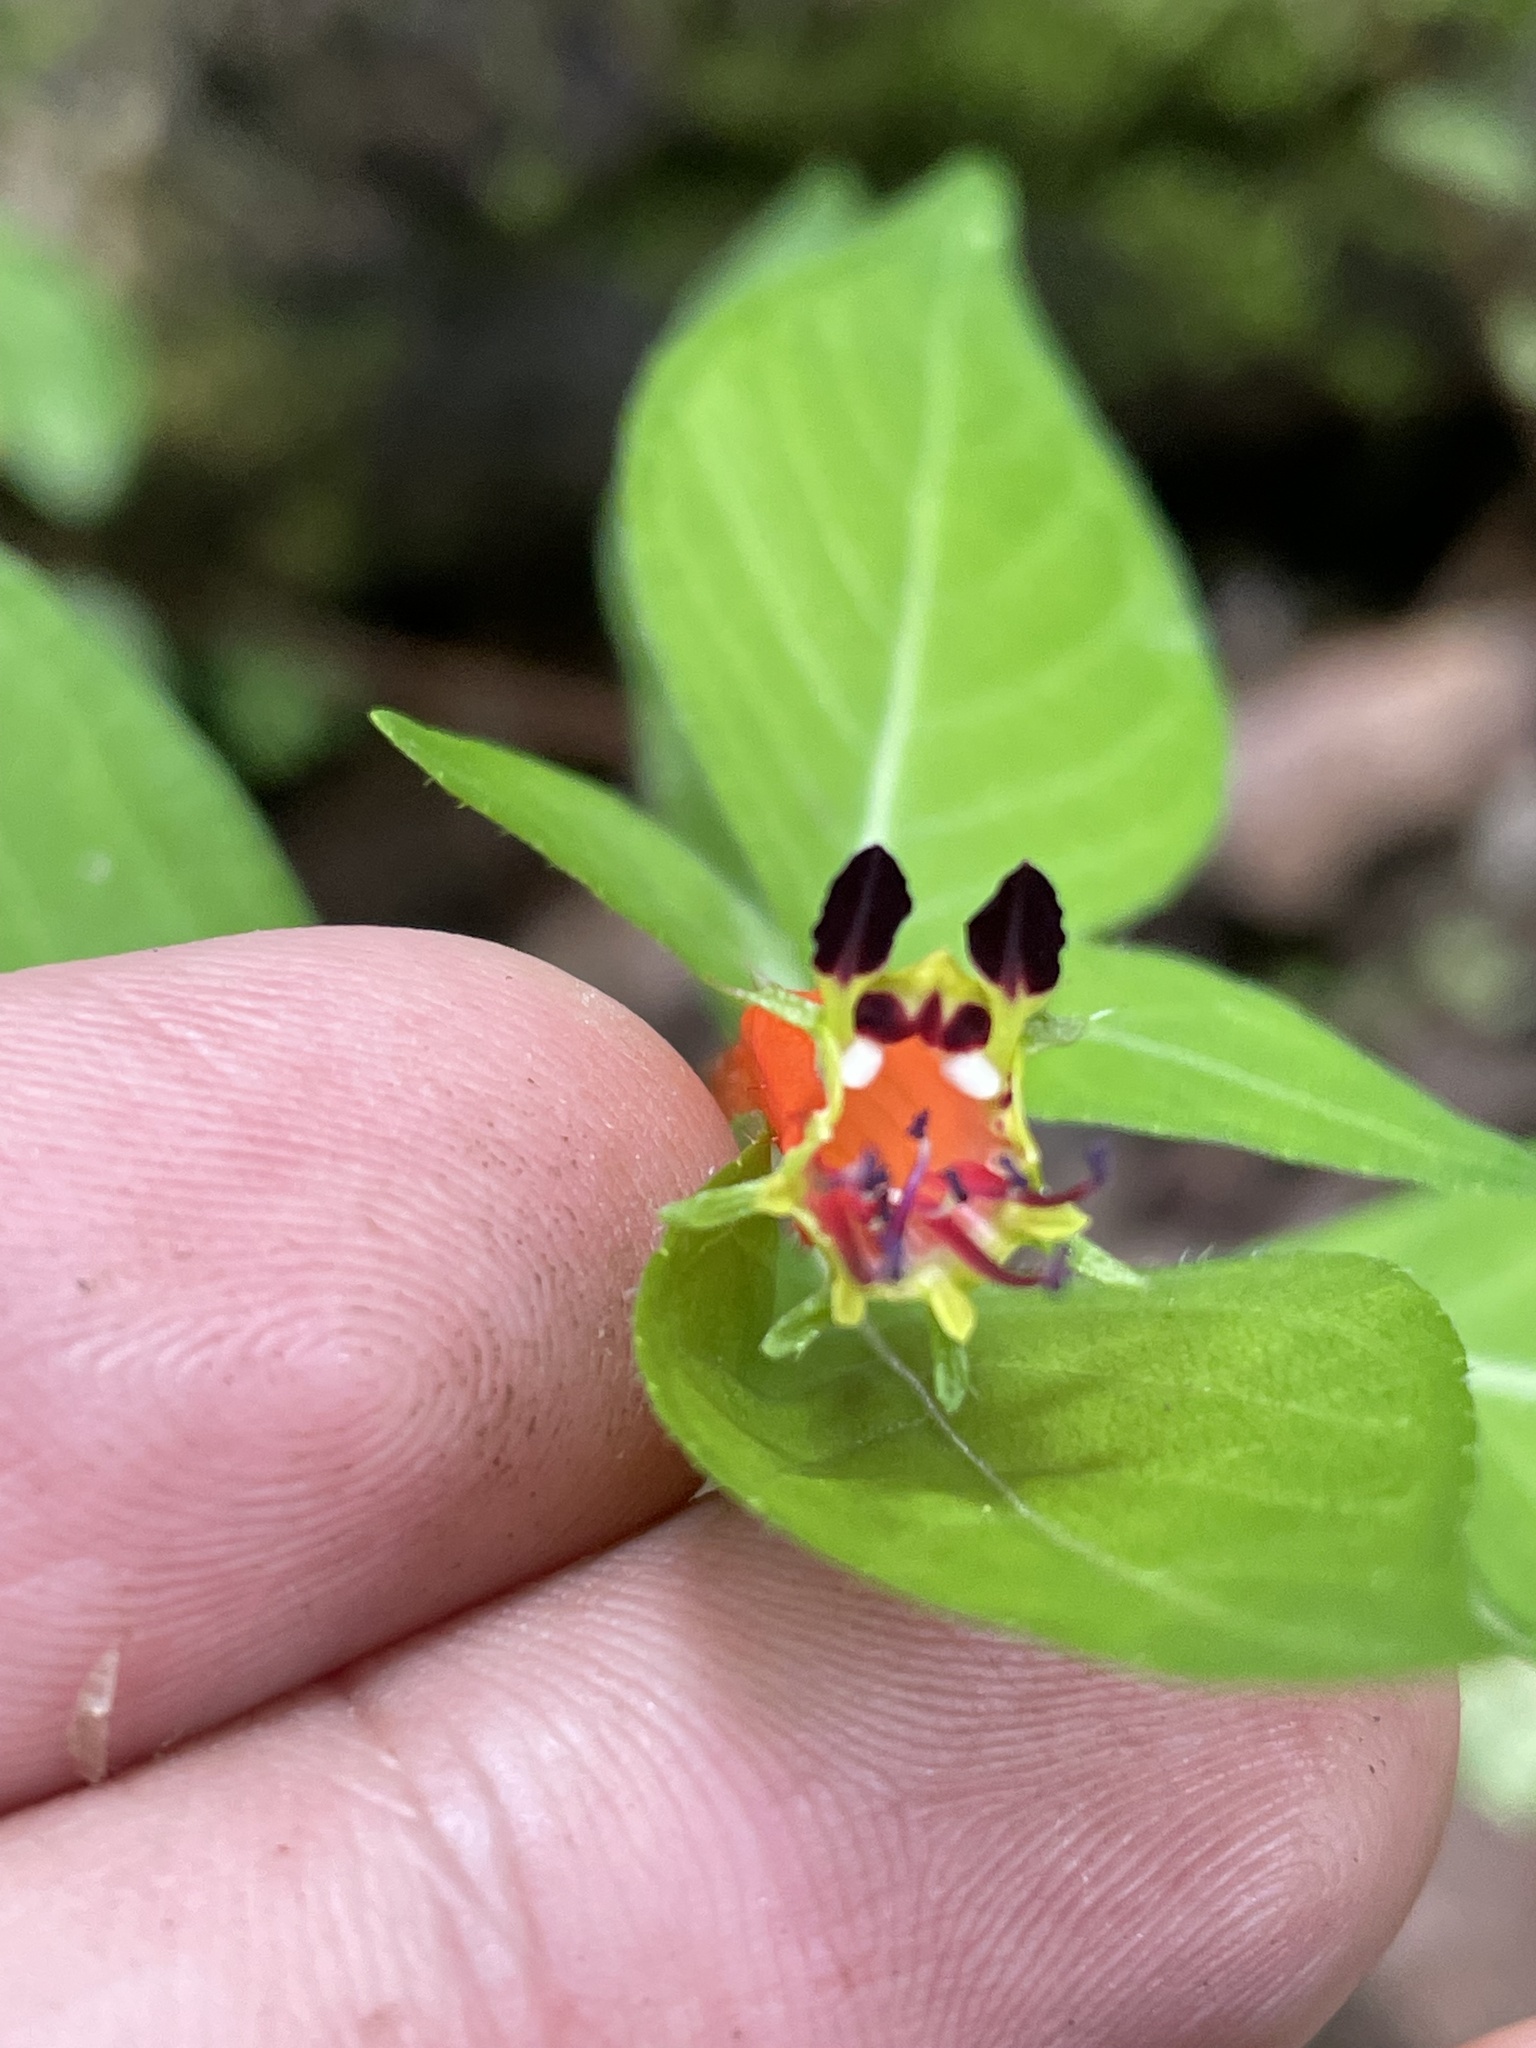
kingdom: Plantae
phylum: Tracheophyta
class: Magnoliopsida
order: Myrtales
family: Lythraceae
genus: Cuphea
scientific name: Cuphea bustamanta
